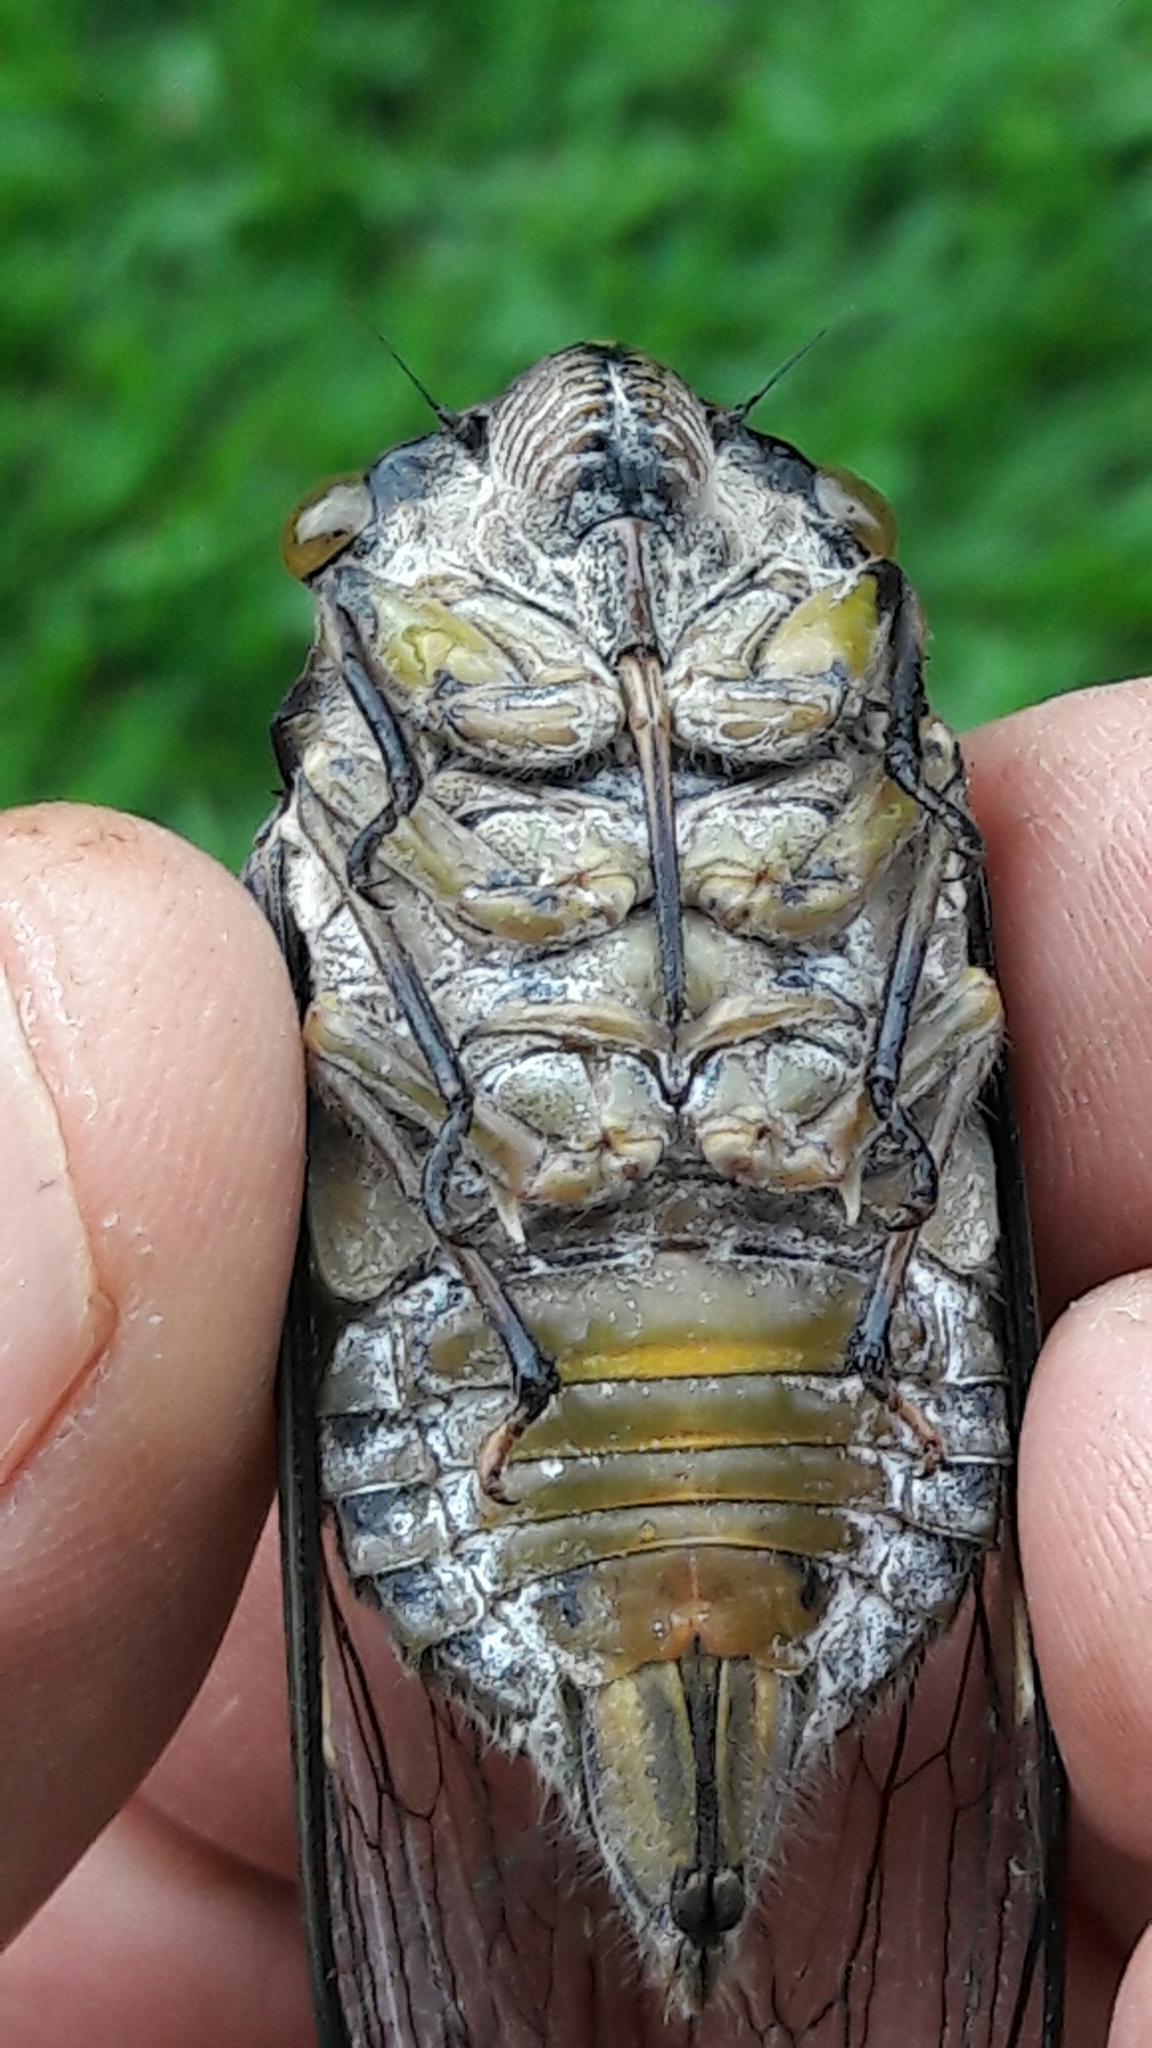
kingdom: Animalia
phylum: Arthropoda
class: Insecta
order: Hemiptera
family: Cicadidae
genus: Quesada
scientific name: Quesada gigas
